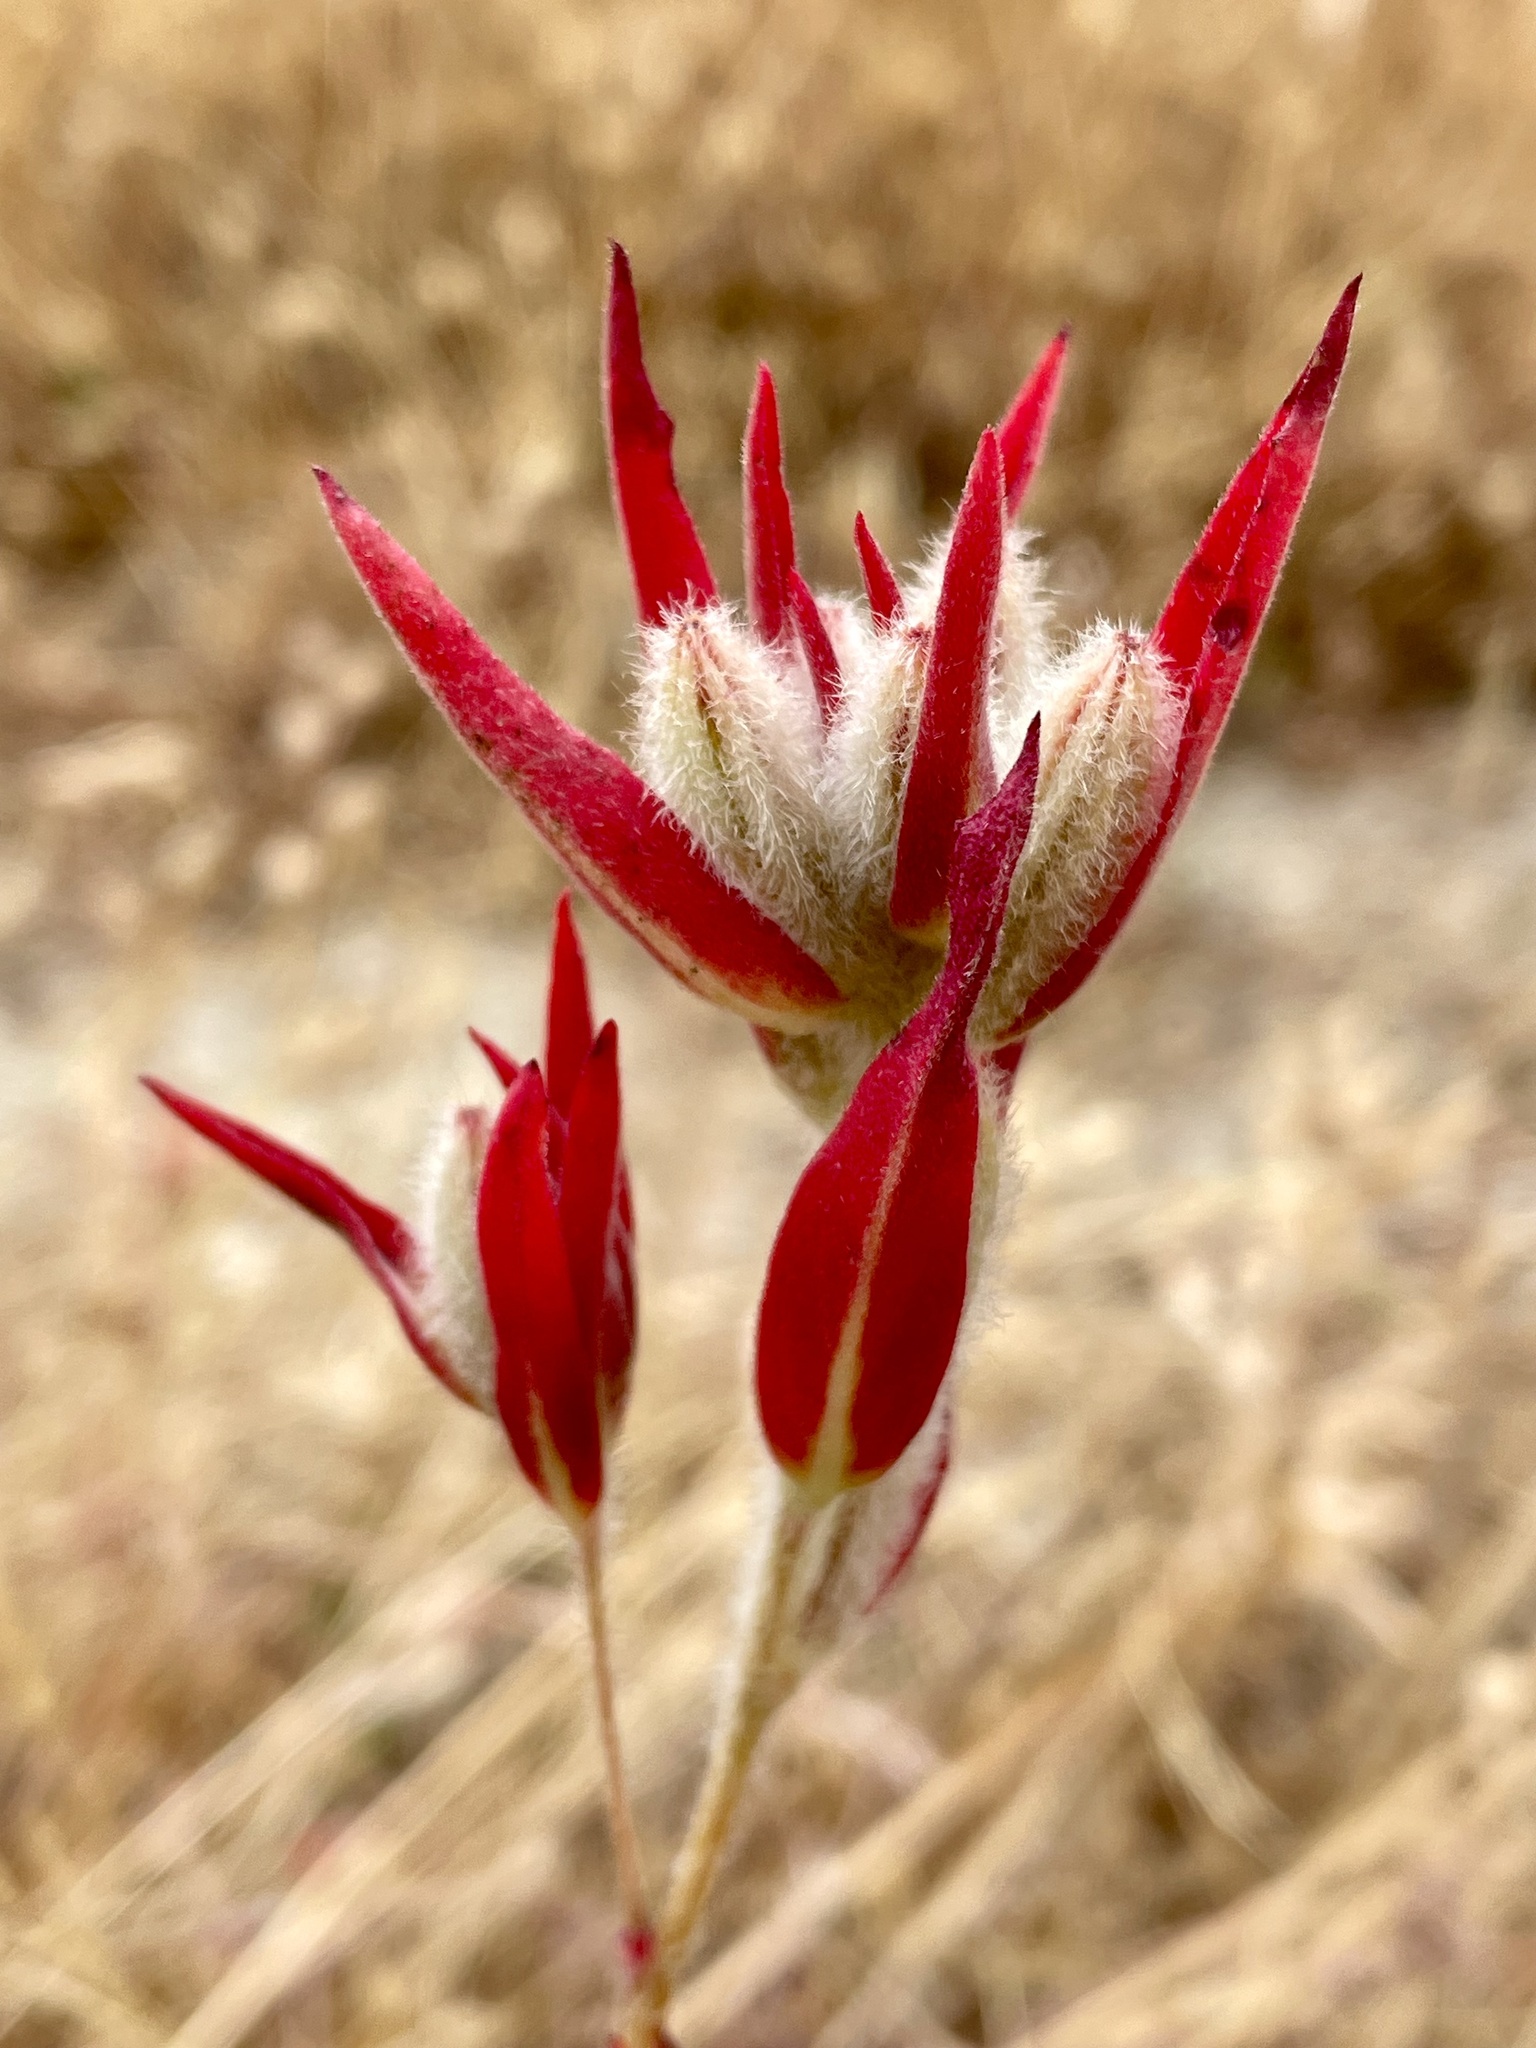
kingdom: Plantae
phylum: Tracheophyta
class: Magnoliopsida
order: Myrtales
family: Onagraceae
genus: Clarkia
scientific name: Clarkia purpurea
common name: Purple clarkia
